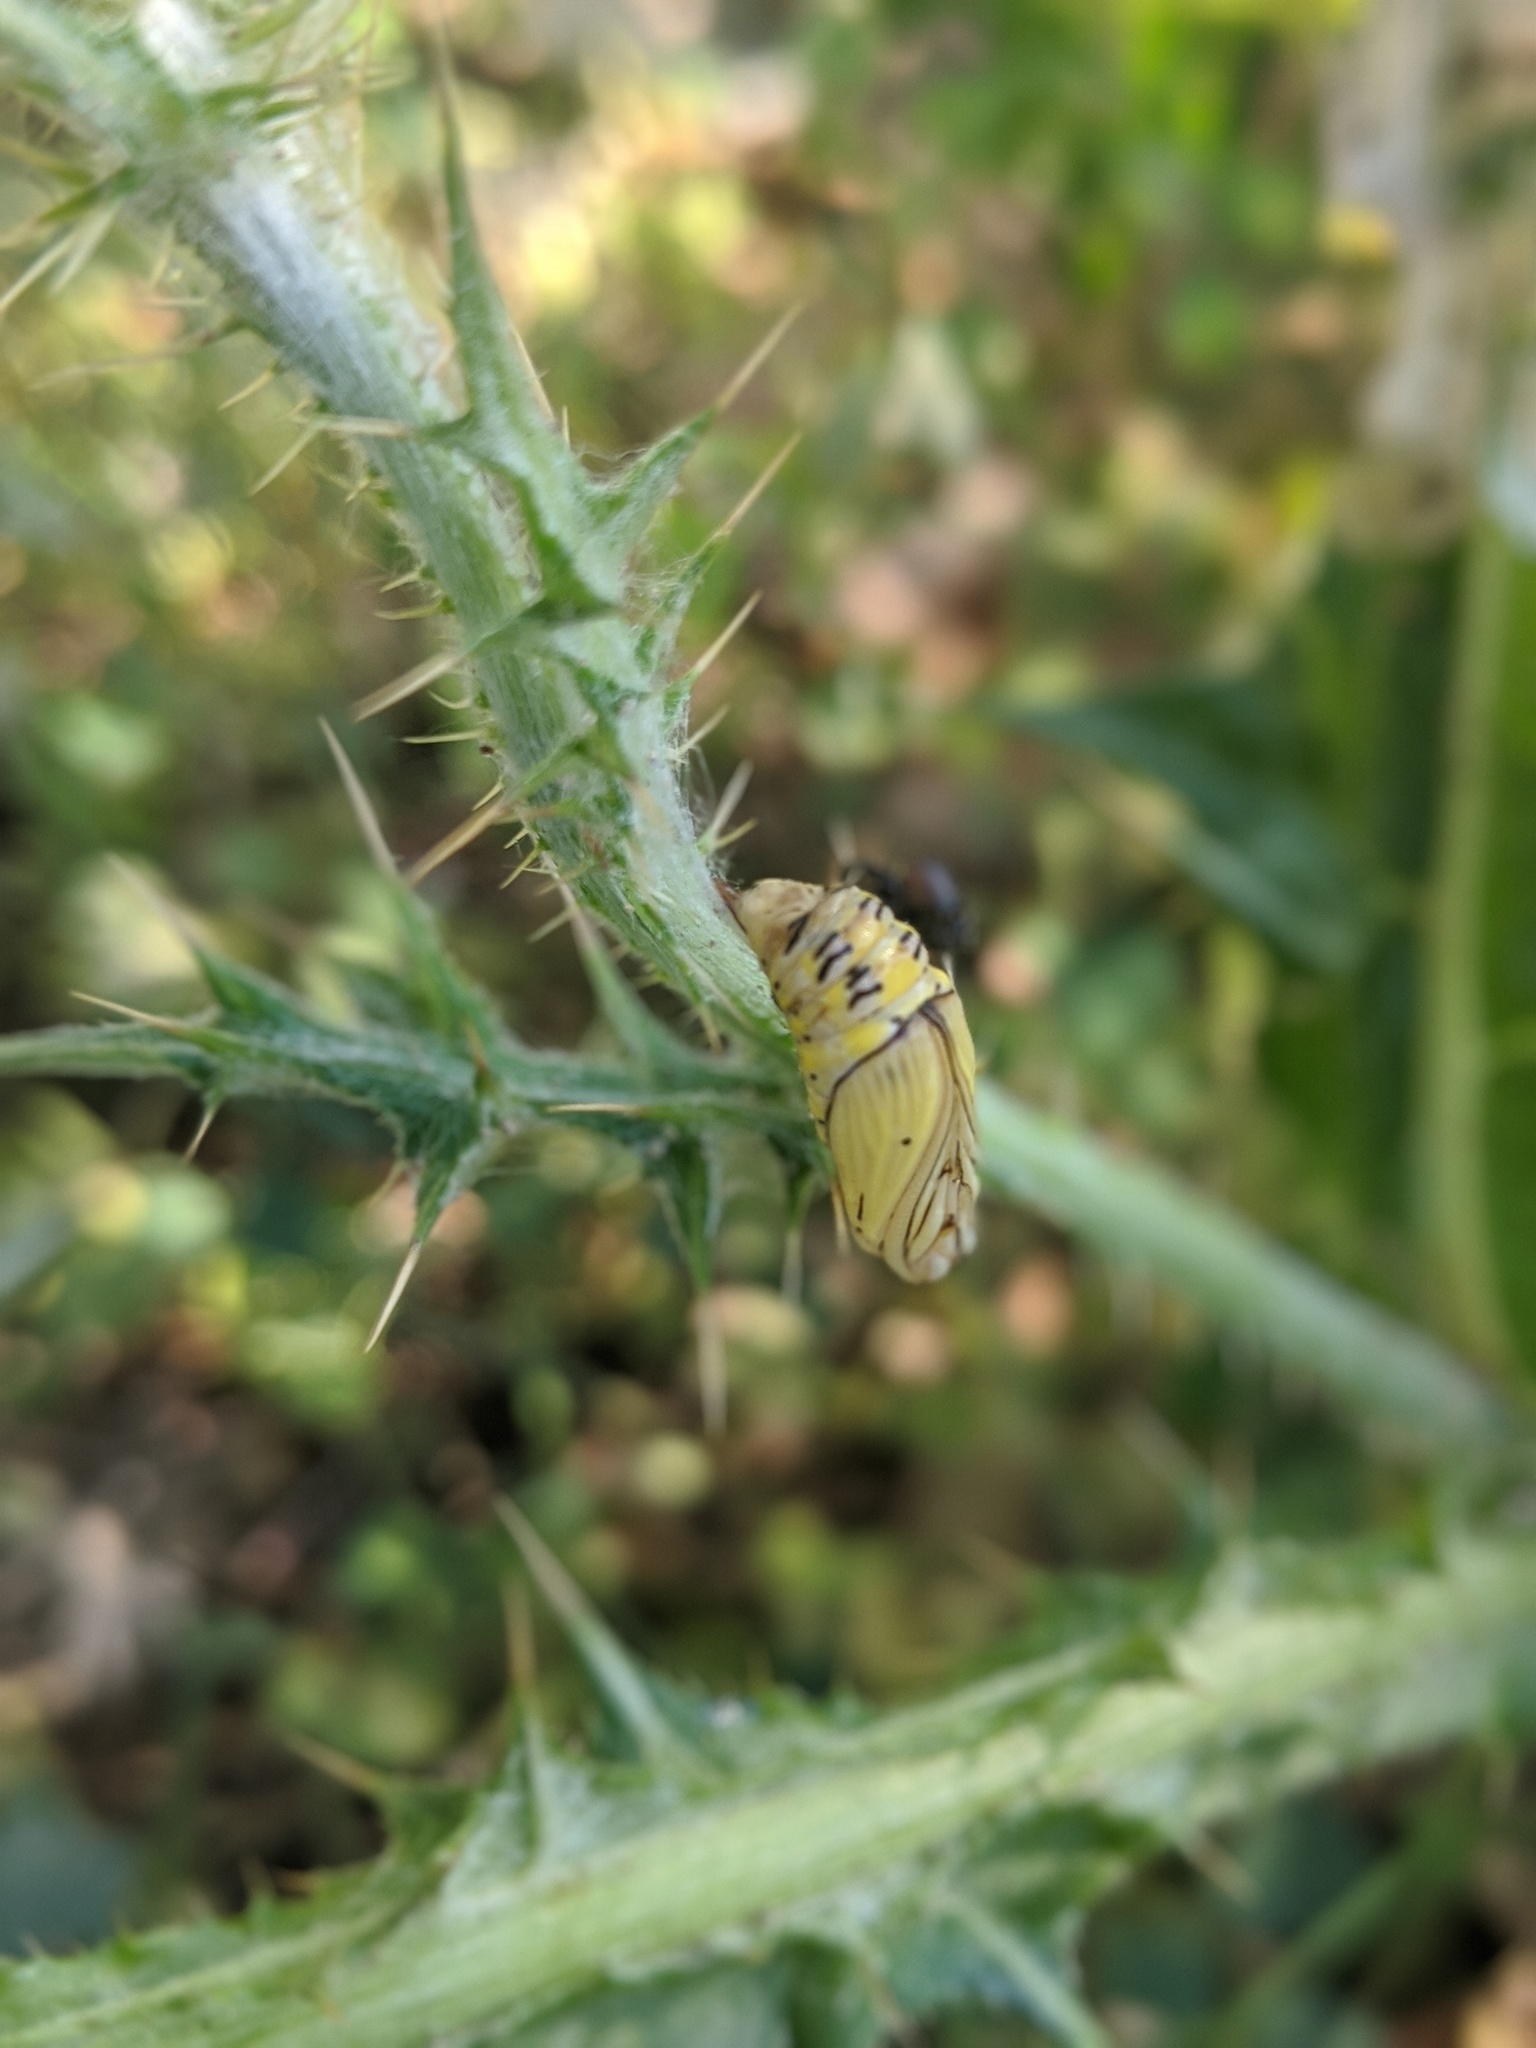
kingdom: Animalia
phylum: Arthropoda
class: Insecta
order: Lepidoptera
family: Notodontidae
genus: Phryganidia
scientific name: Phryganidia californica
